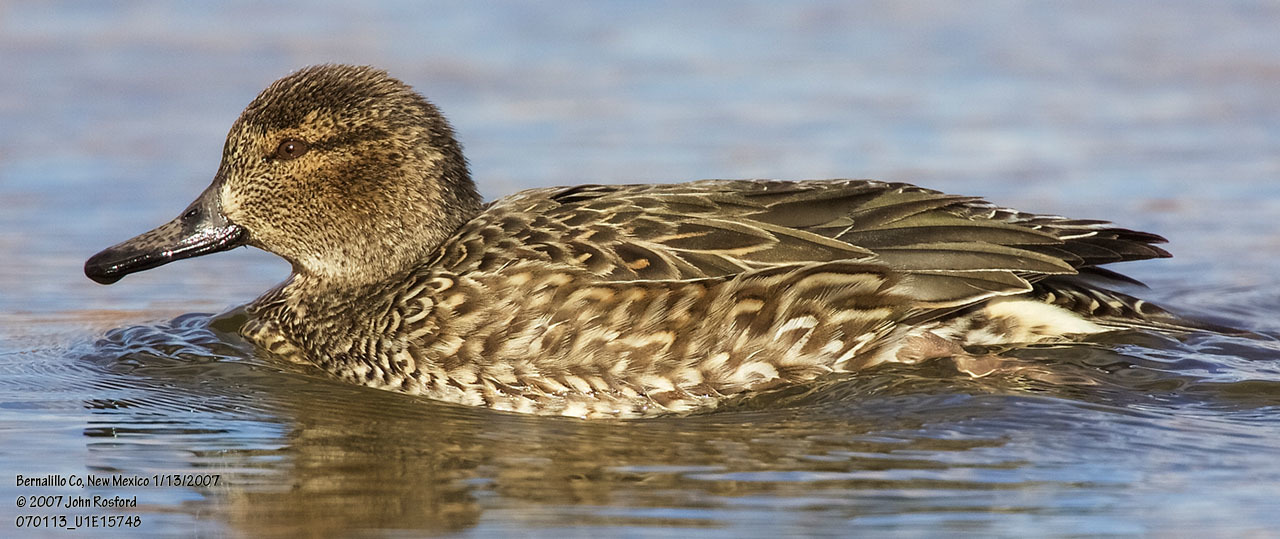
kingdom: Animalia
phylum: Chordata
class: Aves
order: Anseriformes
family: Anatidae
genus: Anas
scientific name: Anas crecca
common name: Eurasian teal
